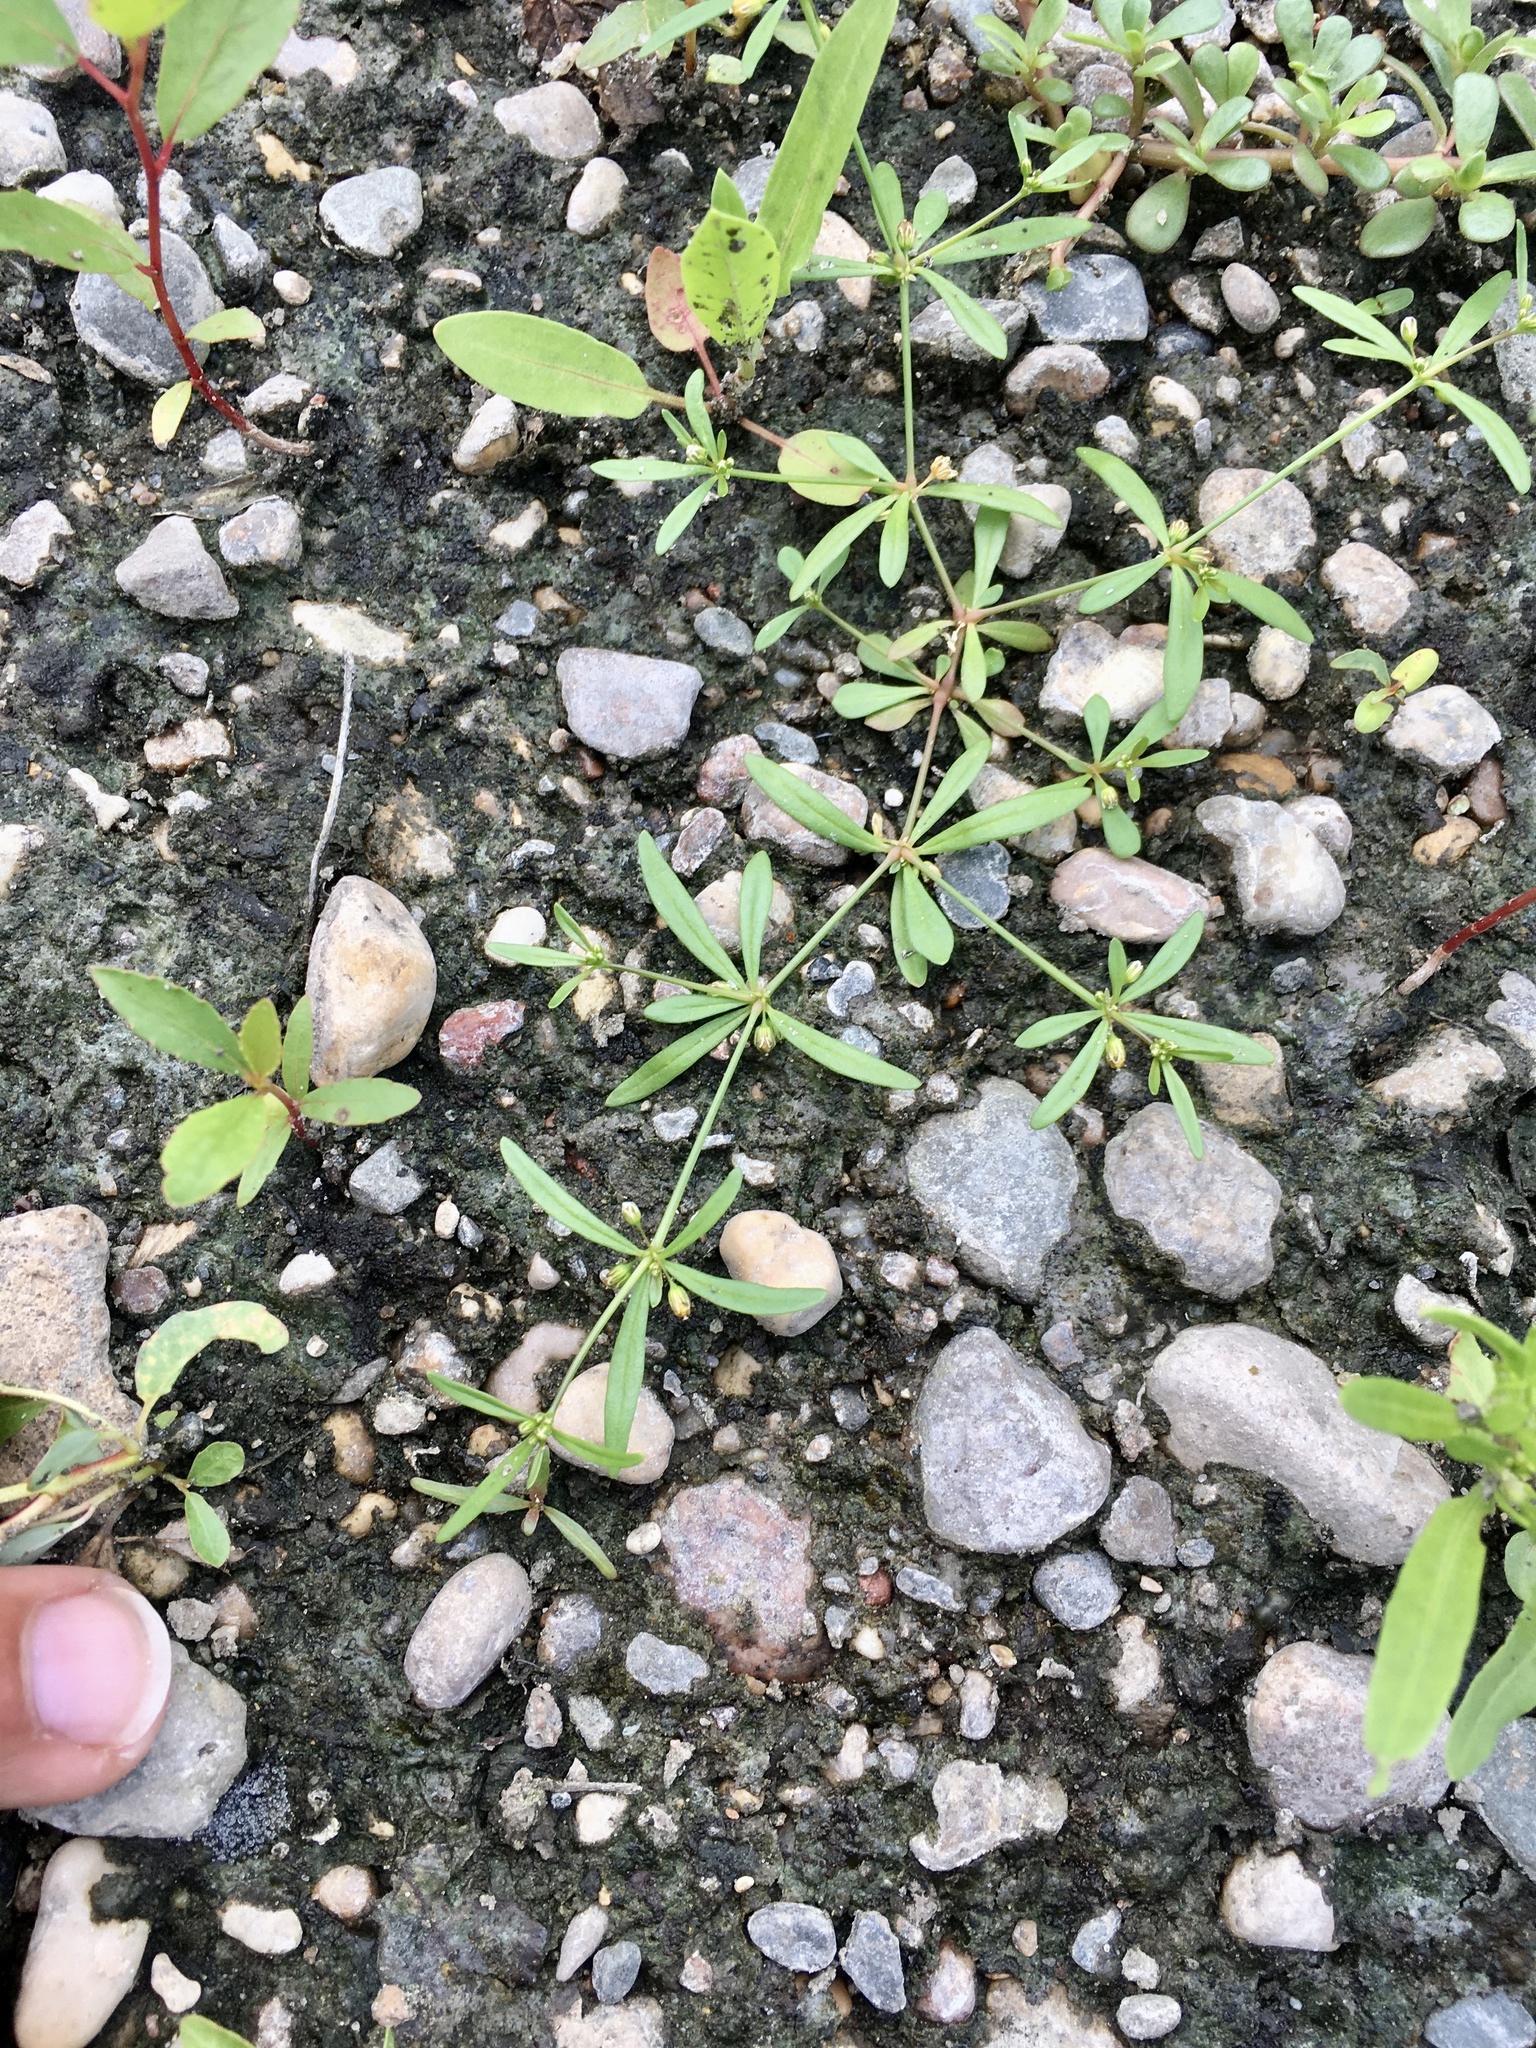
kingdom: Plantae
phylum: Tracheophyta
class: Magnoliopsida
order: Caryophyllales
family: Molluginaceae
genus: Mollugo
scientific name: Mollugo verticillata
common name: Green carpetweed
